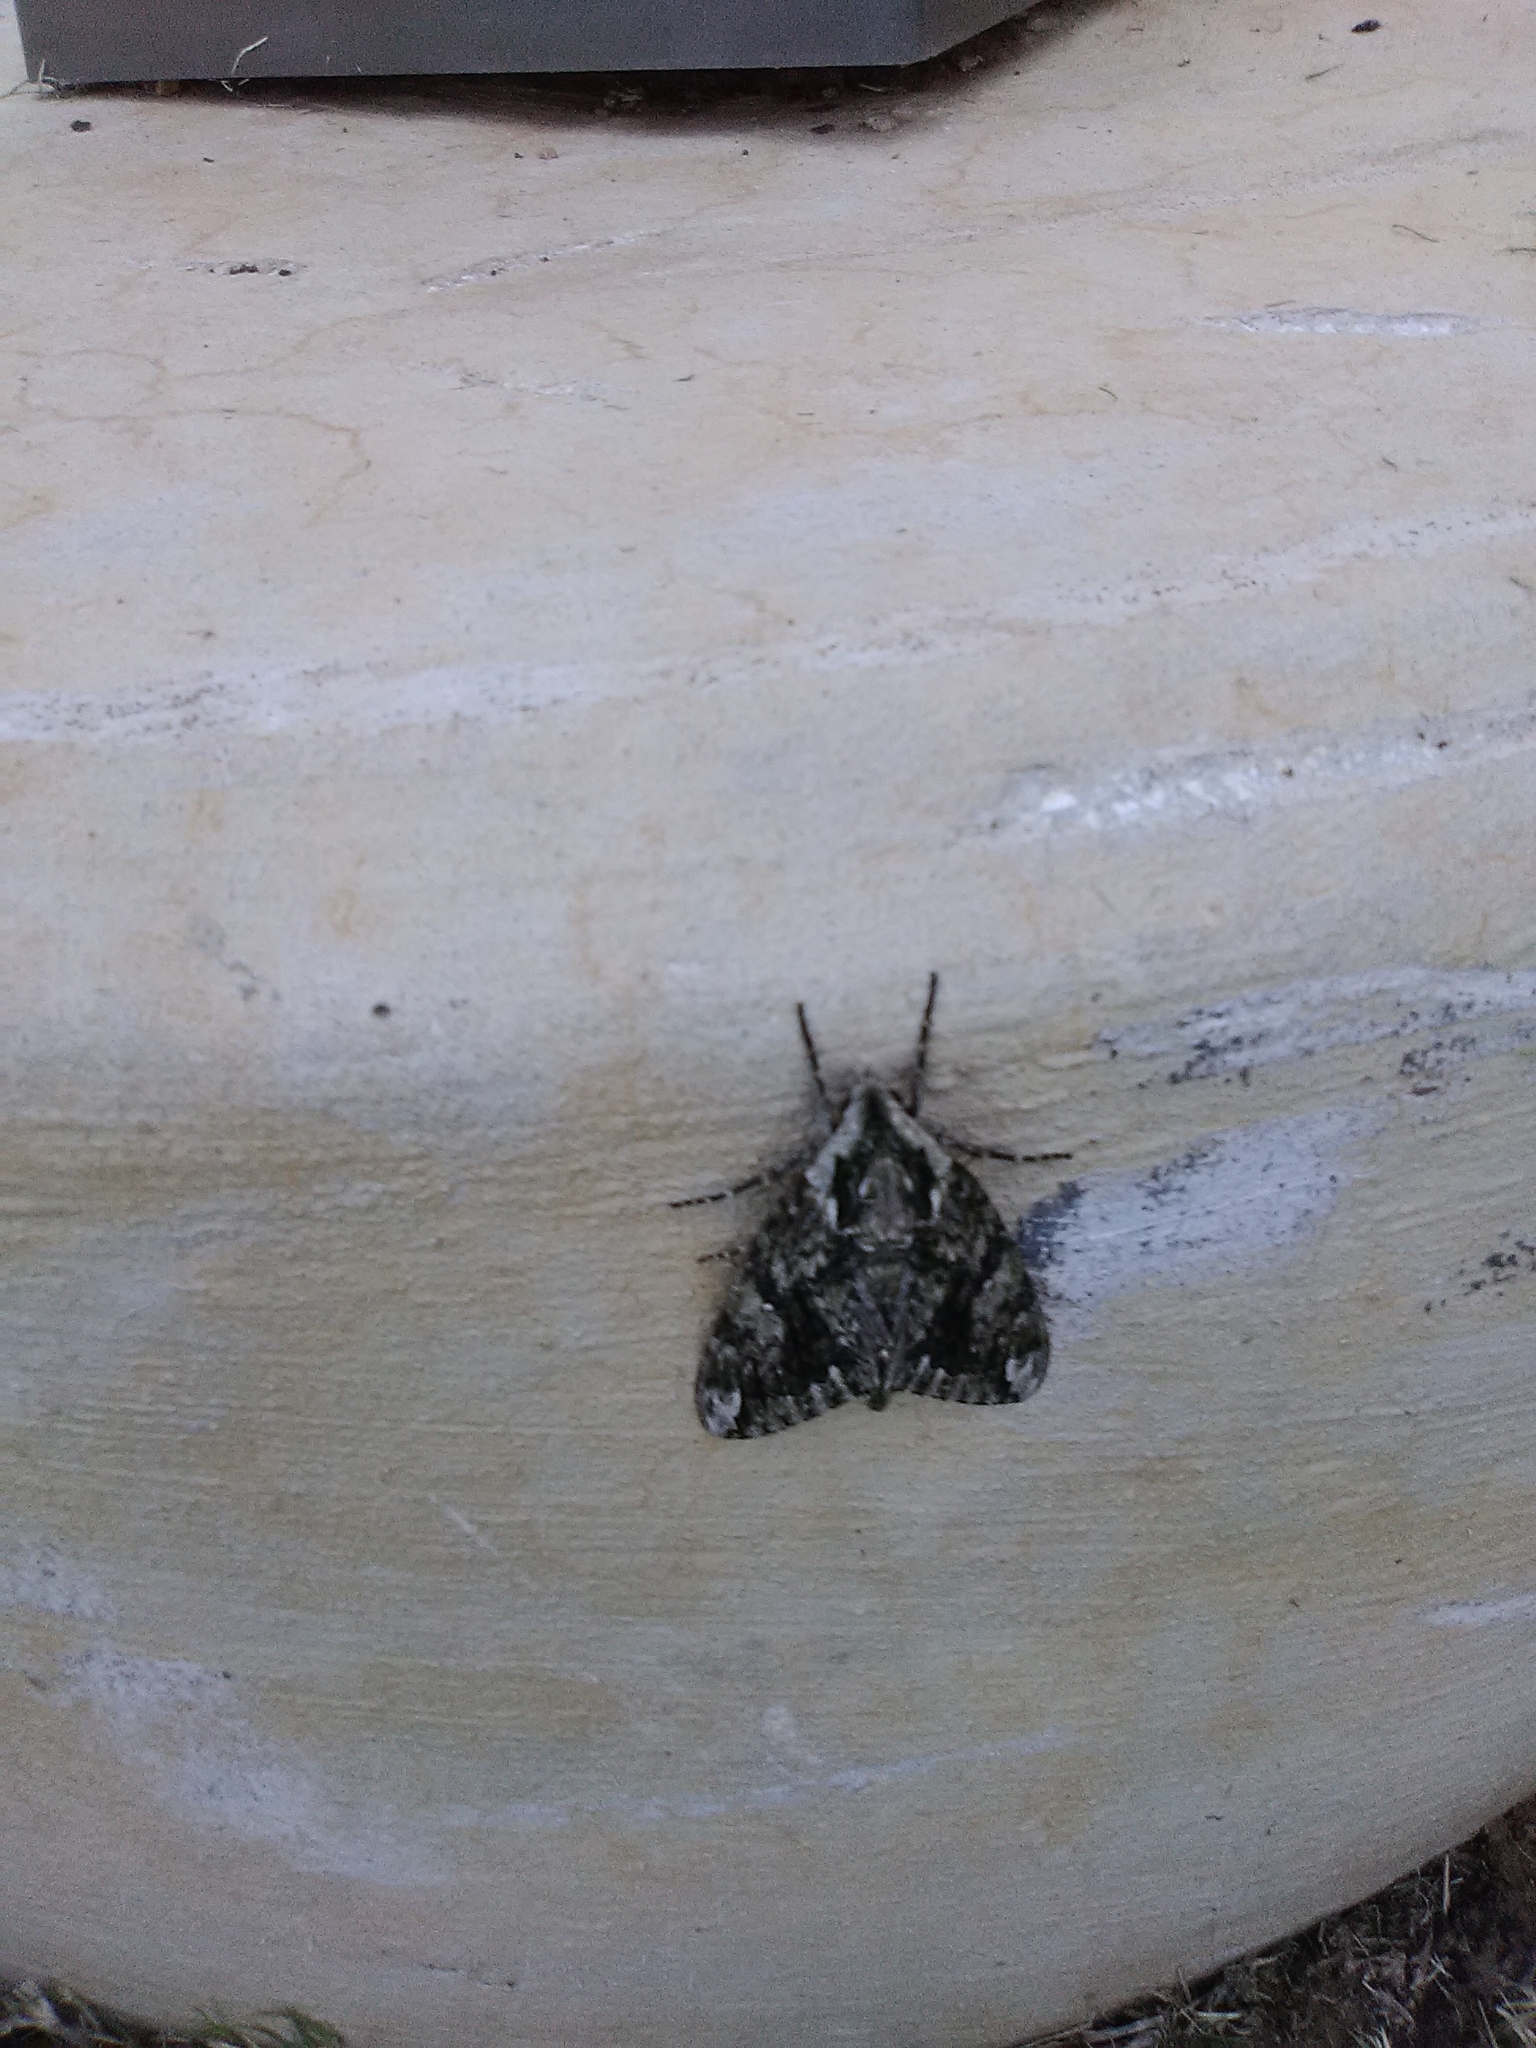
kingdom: Animalia
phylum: Arthropoda
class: Insecta
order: Lepidoptera
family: Sphingidae
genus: Ceratomia
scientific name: Ceratomia hageni
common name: Hagen's sphinx
